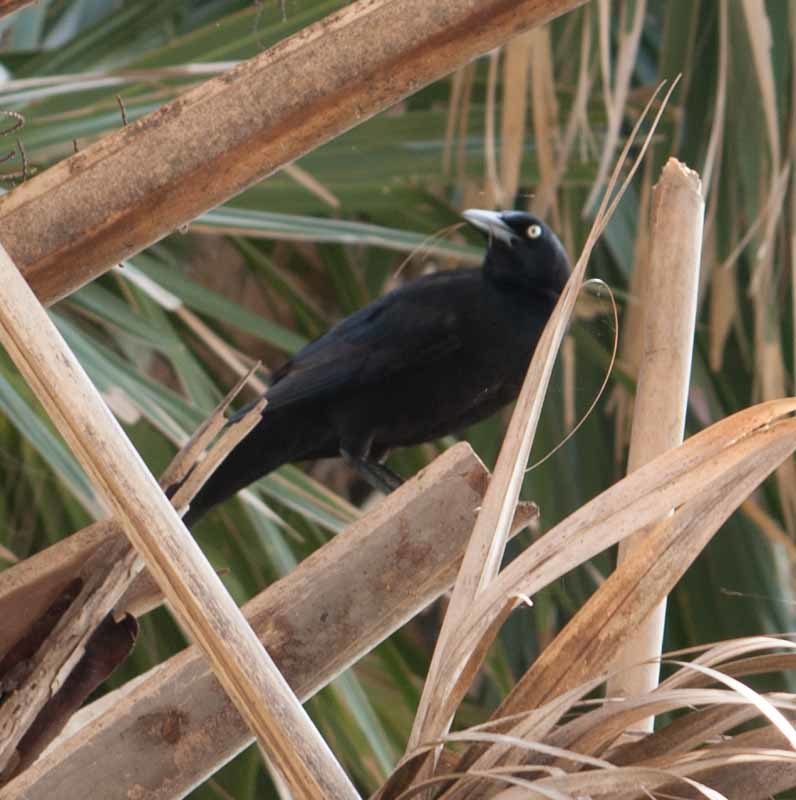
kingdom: Animalia
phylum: Chordata
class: Aves
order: Passeriformes
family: Icteridae
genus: Quiscalus
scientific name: Quiscalus mexicanus
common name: Great-tailed grackle
